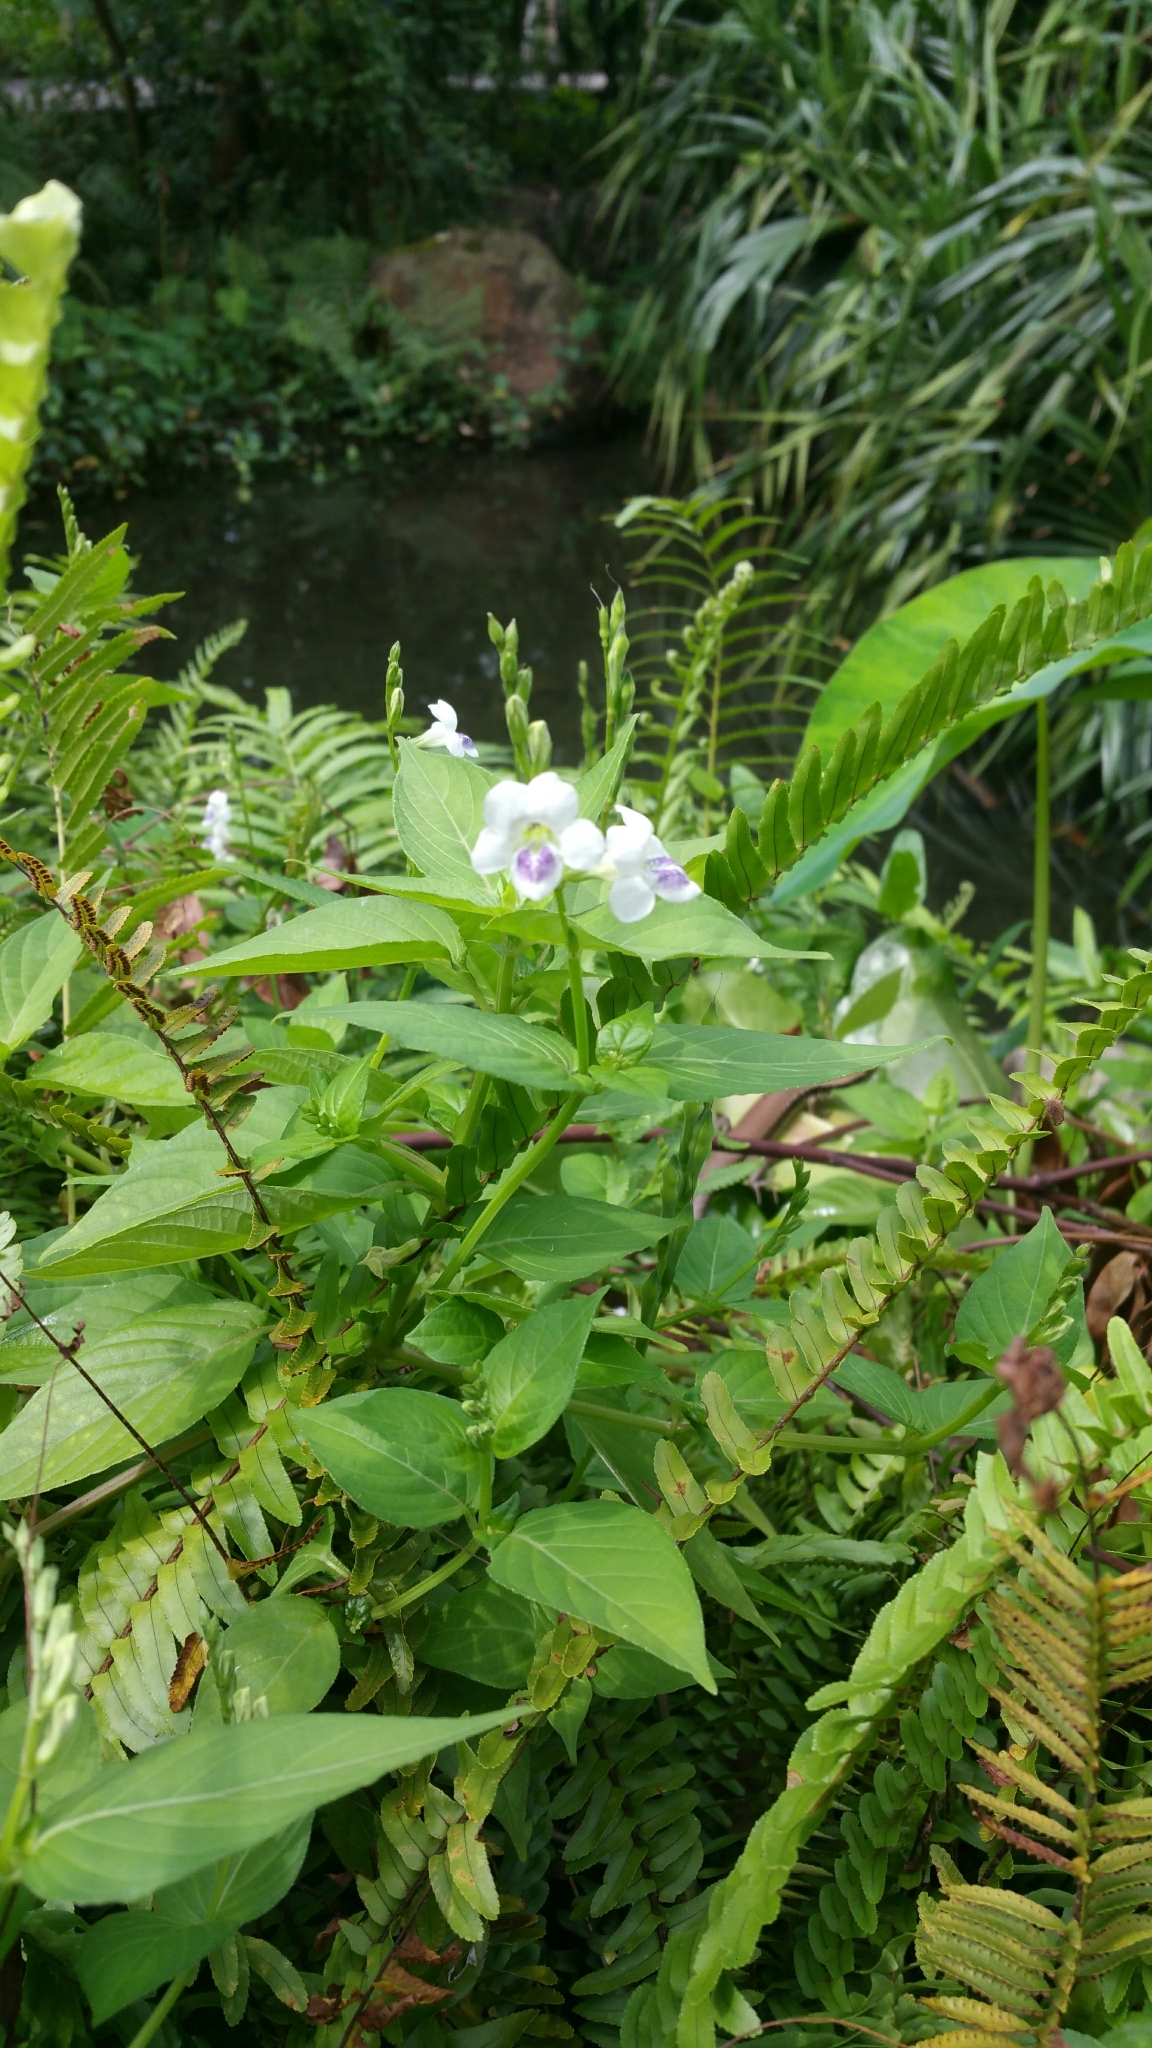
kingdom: Plantae
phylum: Tracheophyta
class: Magnoliopsida
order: Lamiales
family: Acanthaceae
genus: Asystasia
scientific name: Asystasia intrusa
